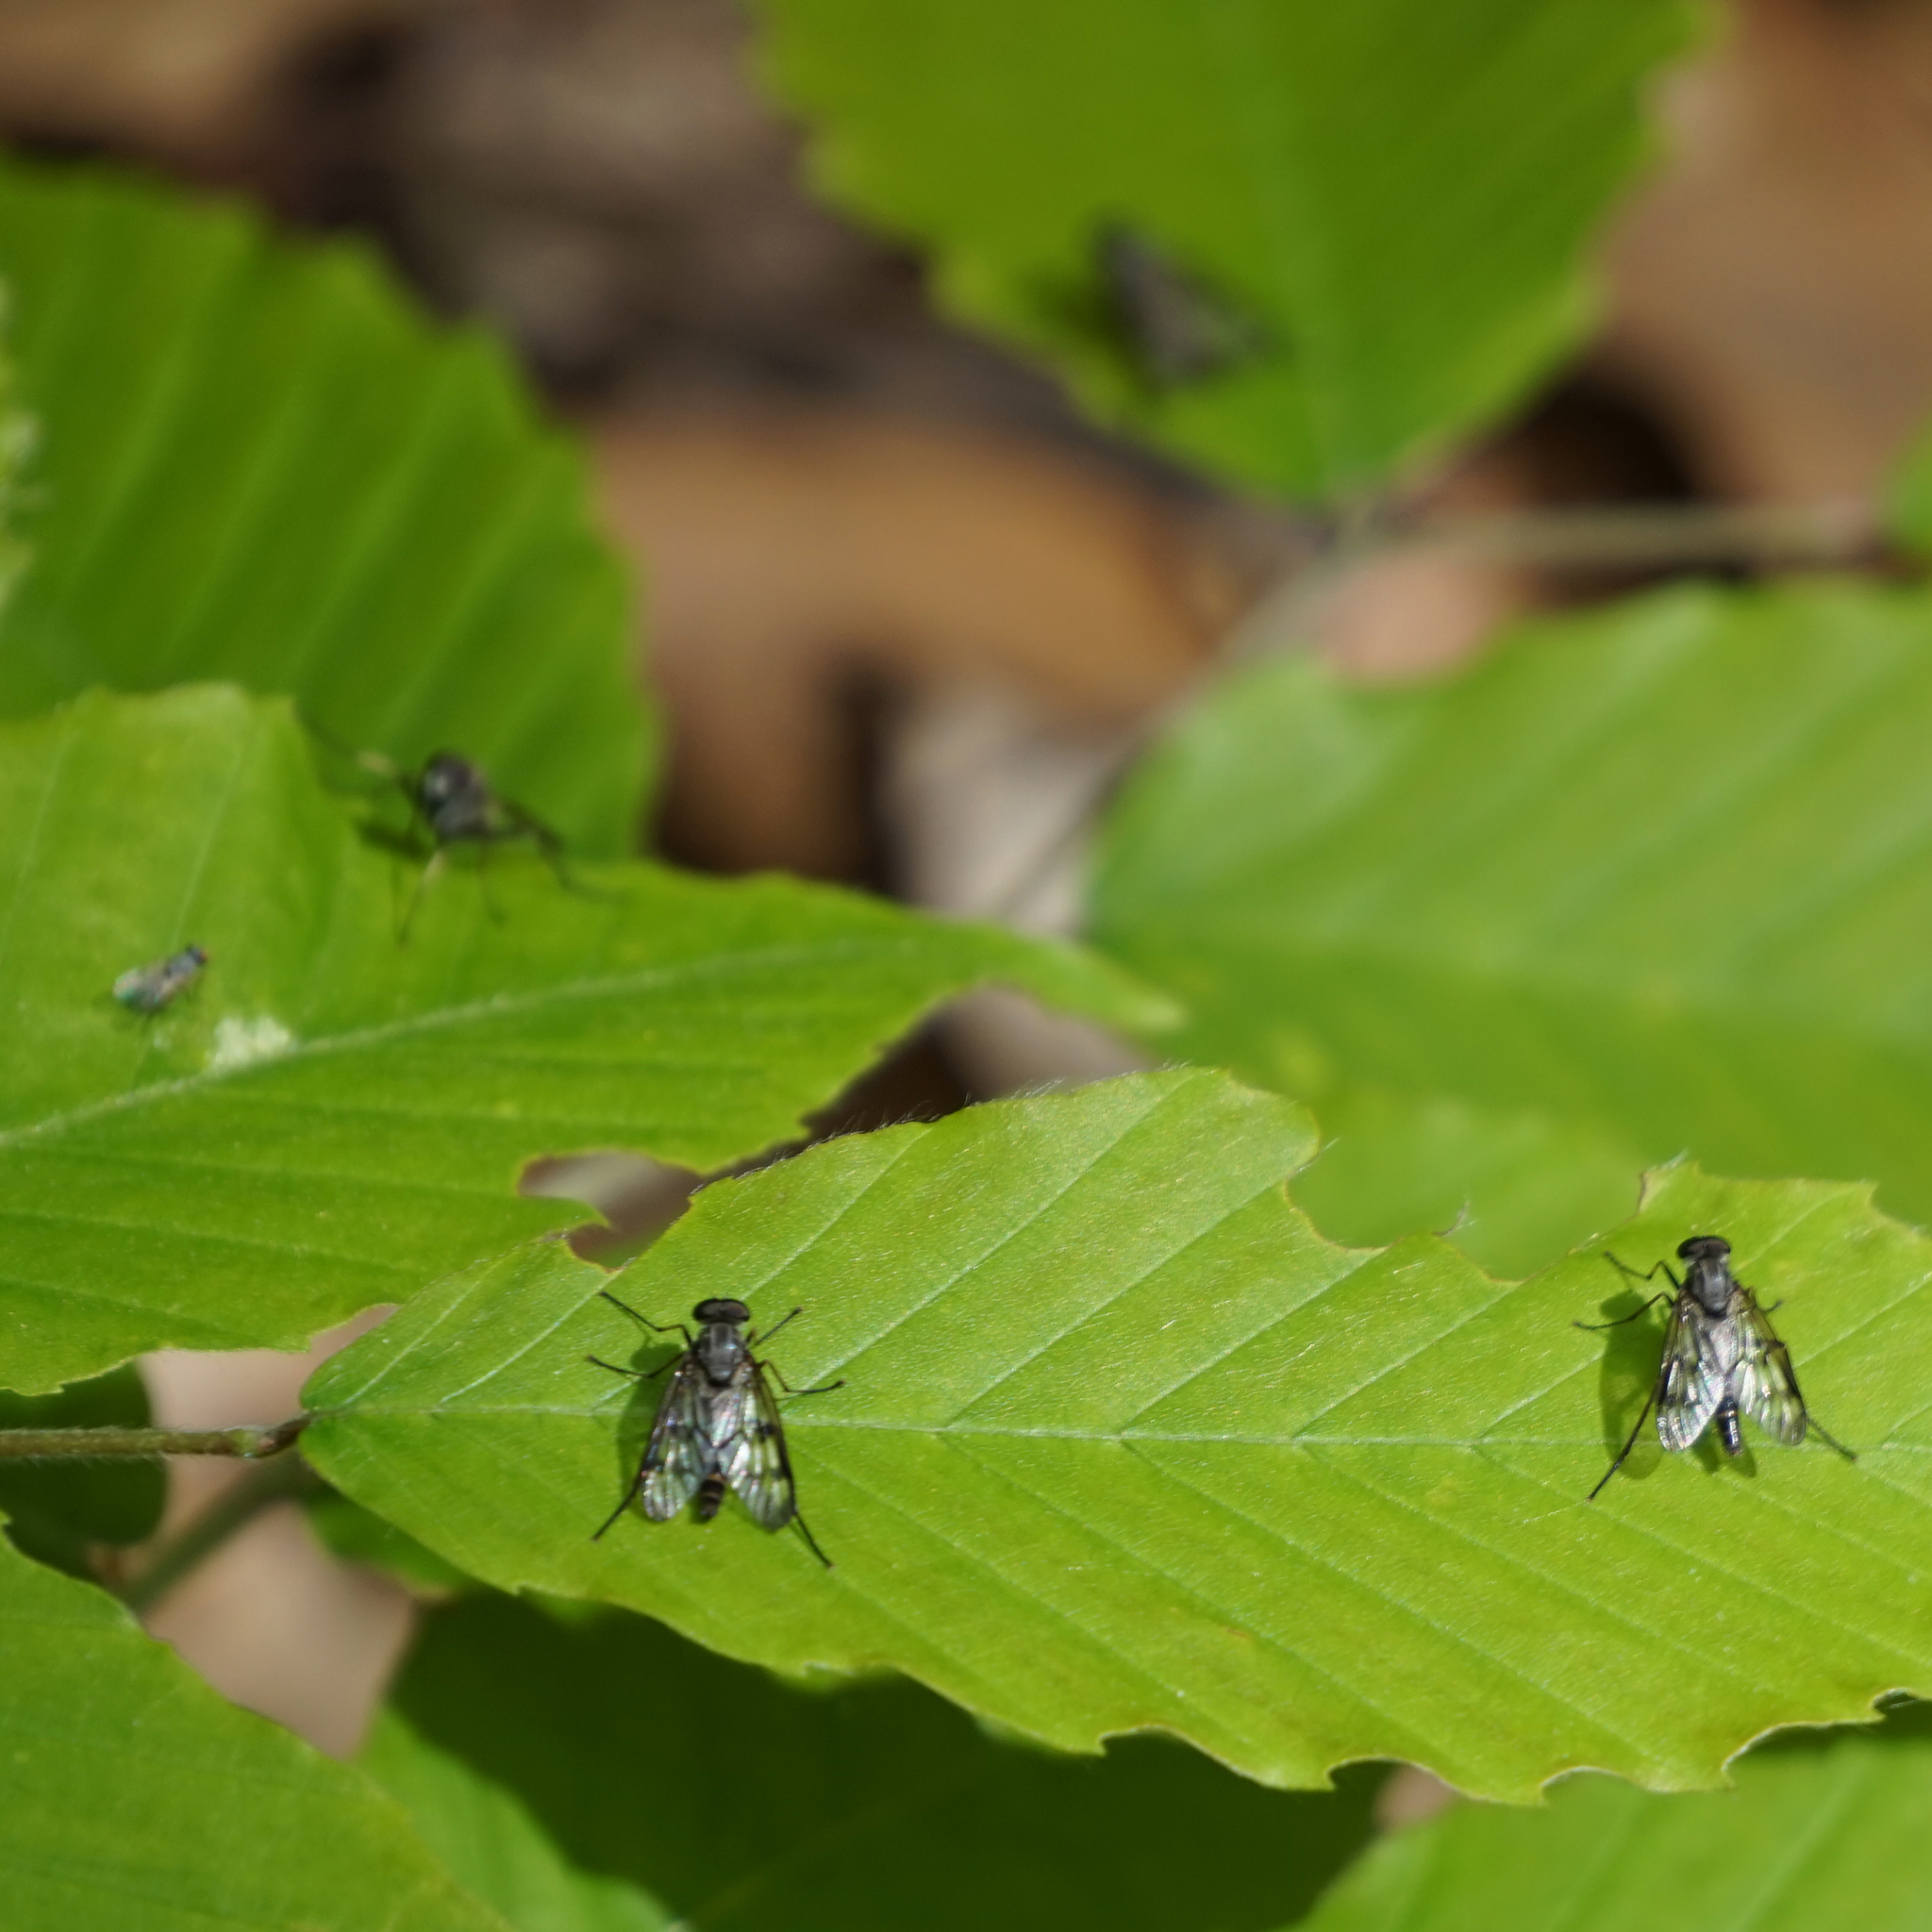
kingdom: Animalia
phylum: Arthropoda
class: Insecta
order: Diptera
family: Rhagionidae
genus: Rhagio
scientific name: Rhagio mystaceus
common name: Common snipe fly
